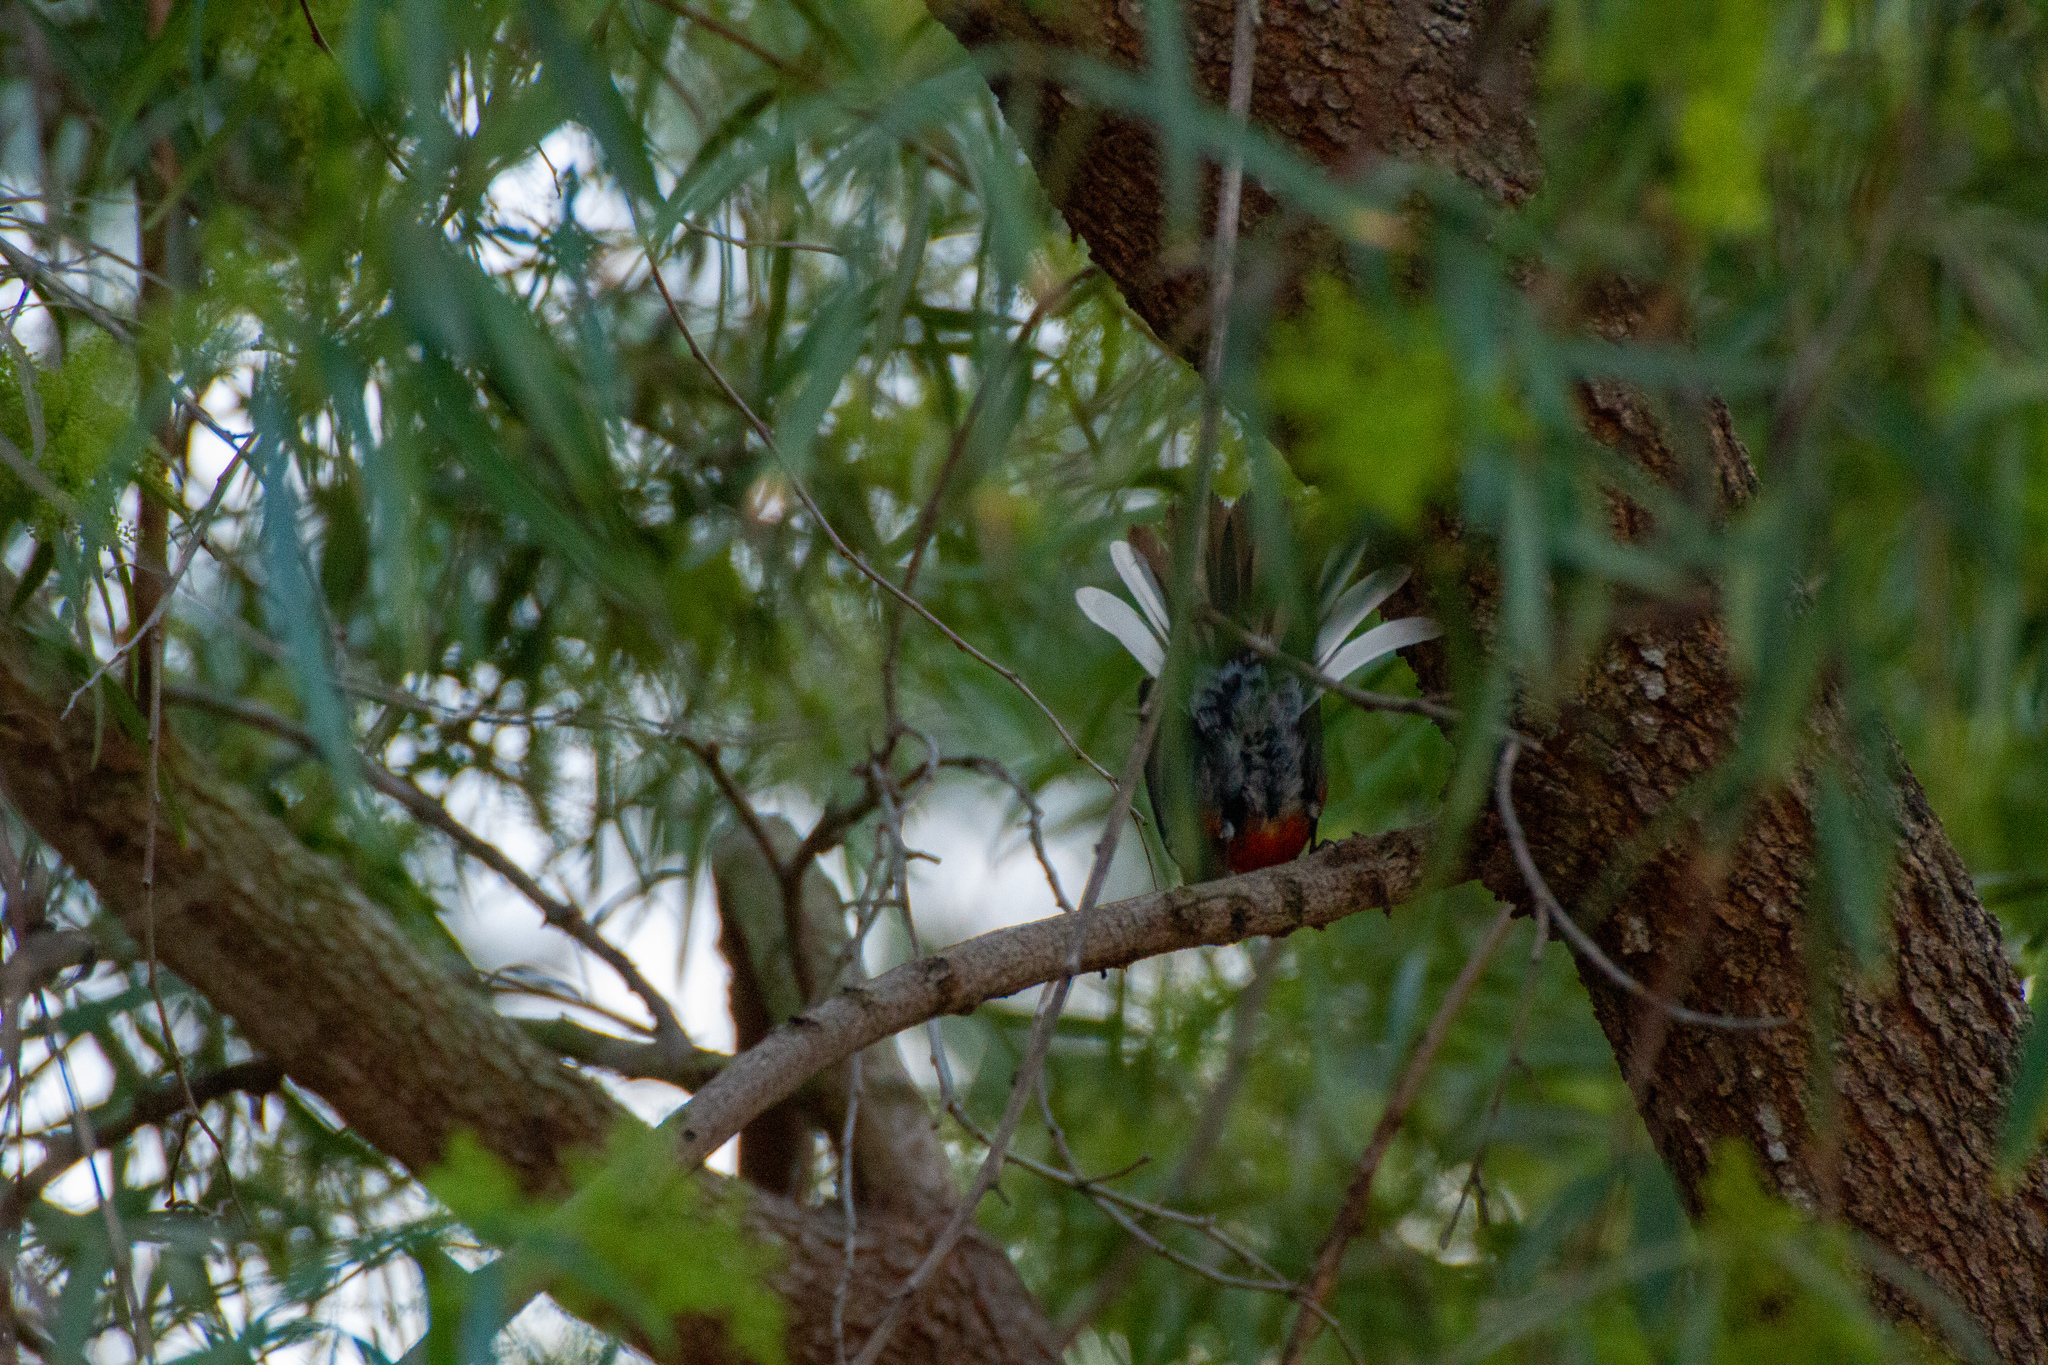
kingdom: Animalia
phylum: Chordata
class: Aves
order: Passeriformes
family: Parulidae
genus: Myioborus
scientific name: Myioborus pictus
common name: Painted whitestart
